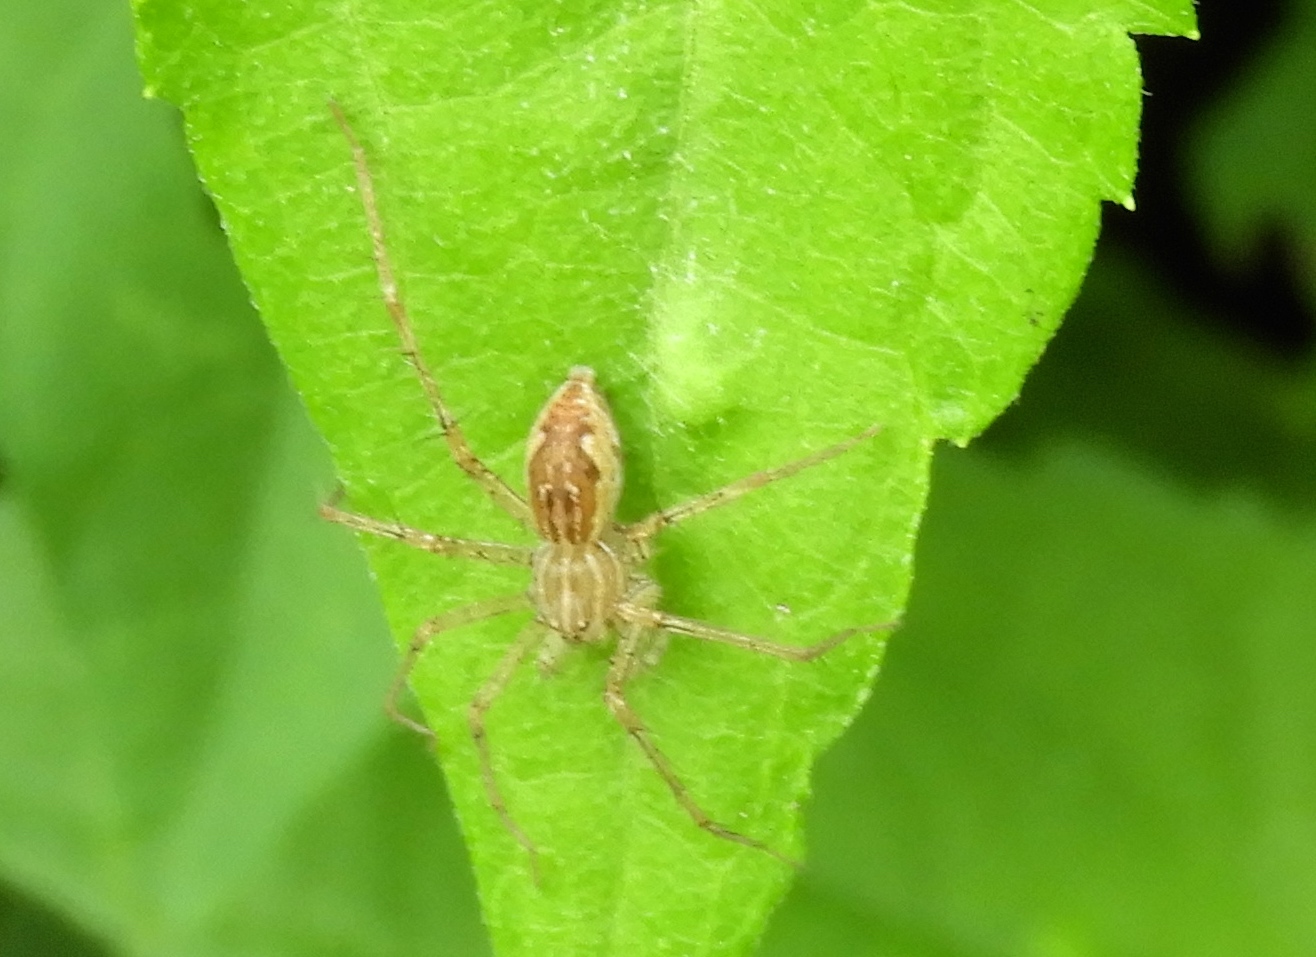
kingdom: Animalia
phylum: Arthropoda
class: Arachnida
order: Araneae
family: Pisauridae
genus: Tinus
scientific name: Tinus
